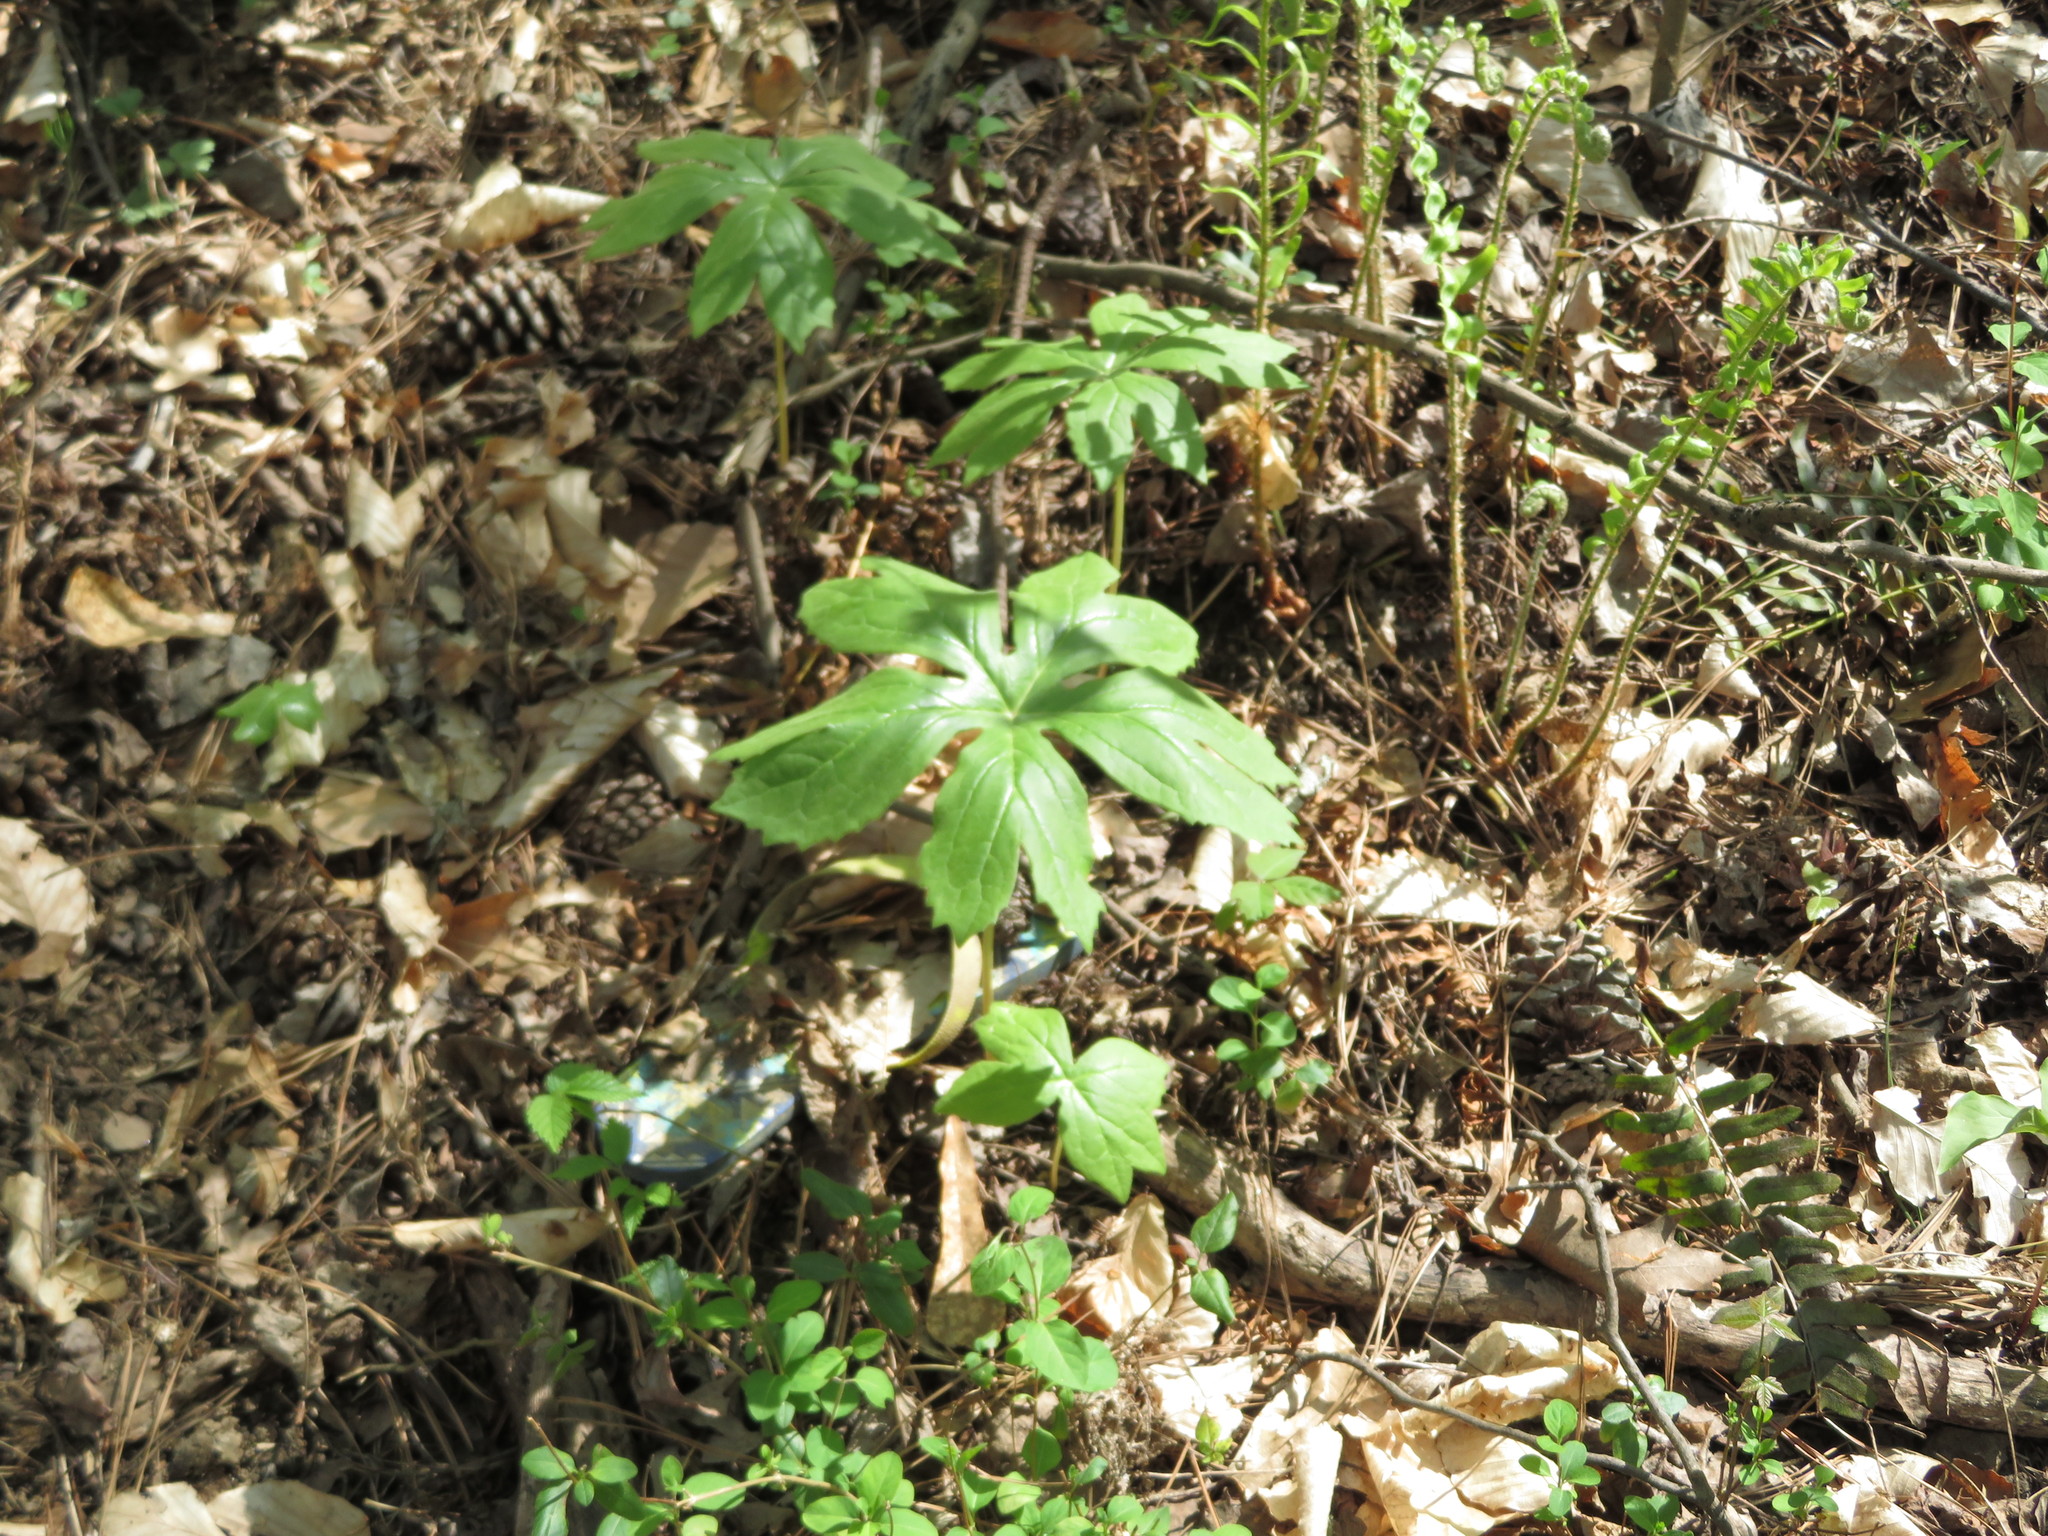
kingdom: Plantae
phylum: Tracheophyta
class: Magnoliopsida
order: Ranunculales
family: Berberidaceae
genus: Podophyllum
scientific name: Podophyllum peltatum
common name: Wild mandrake
